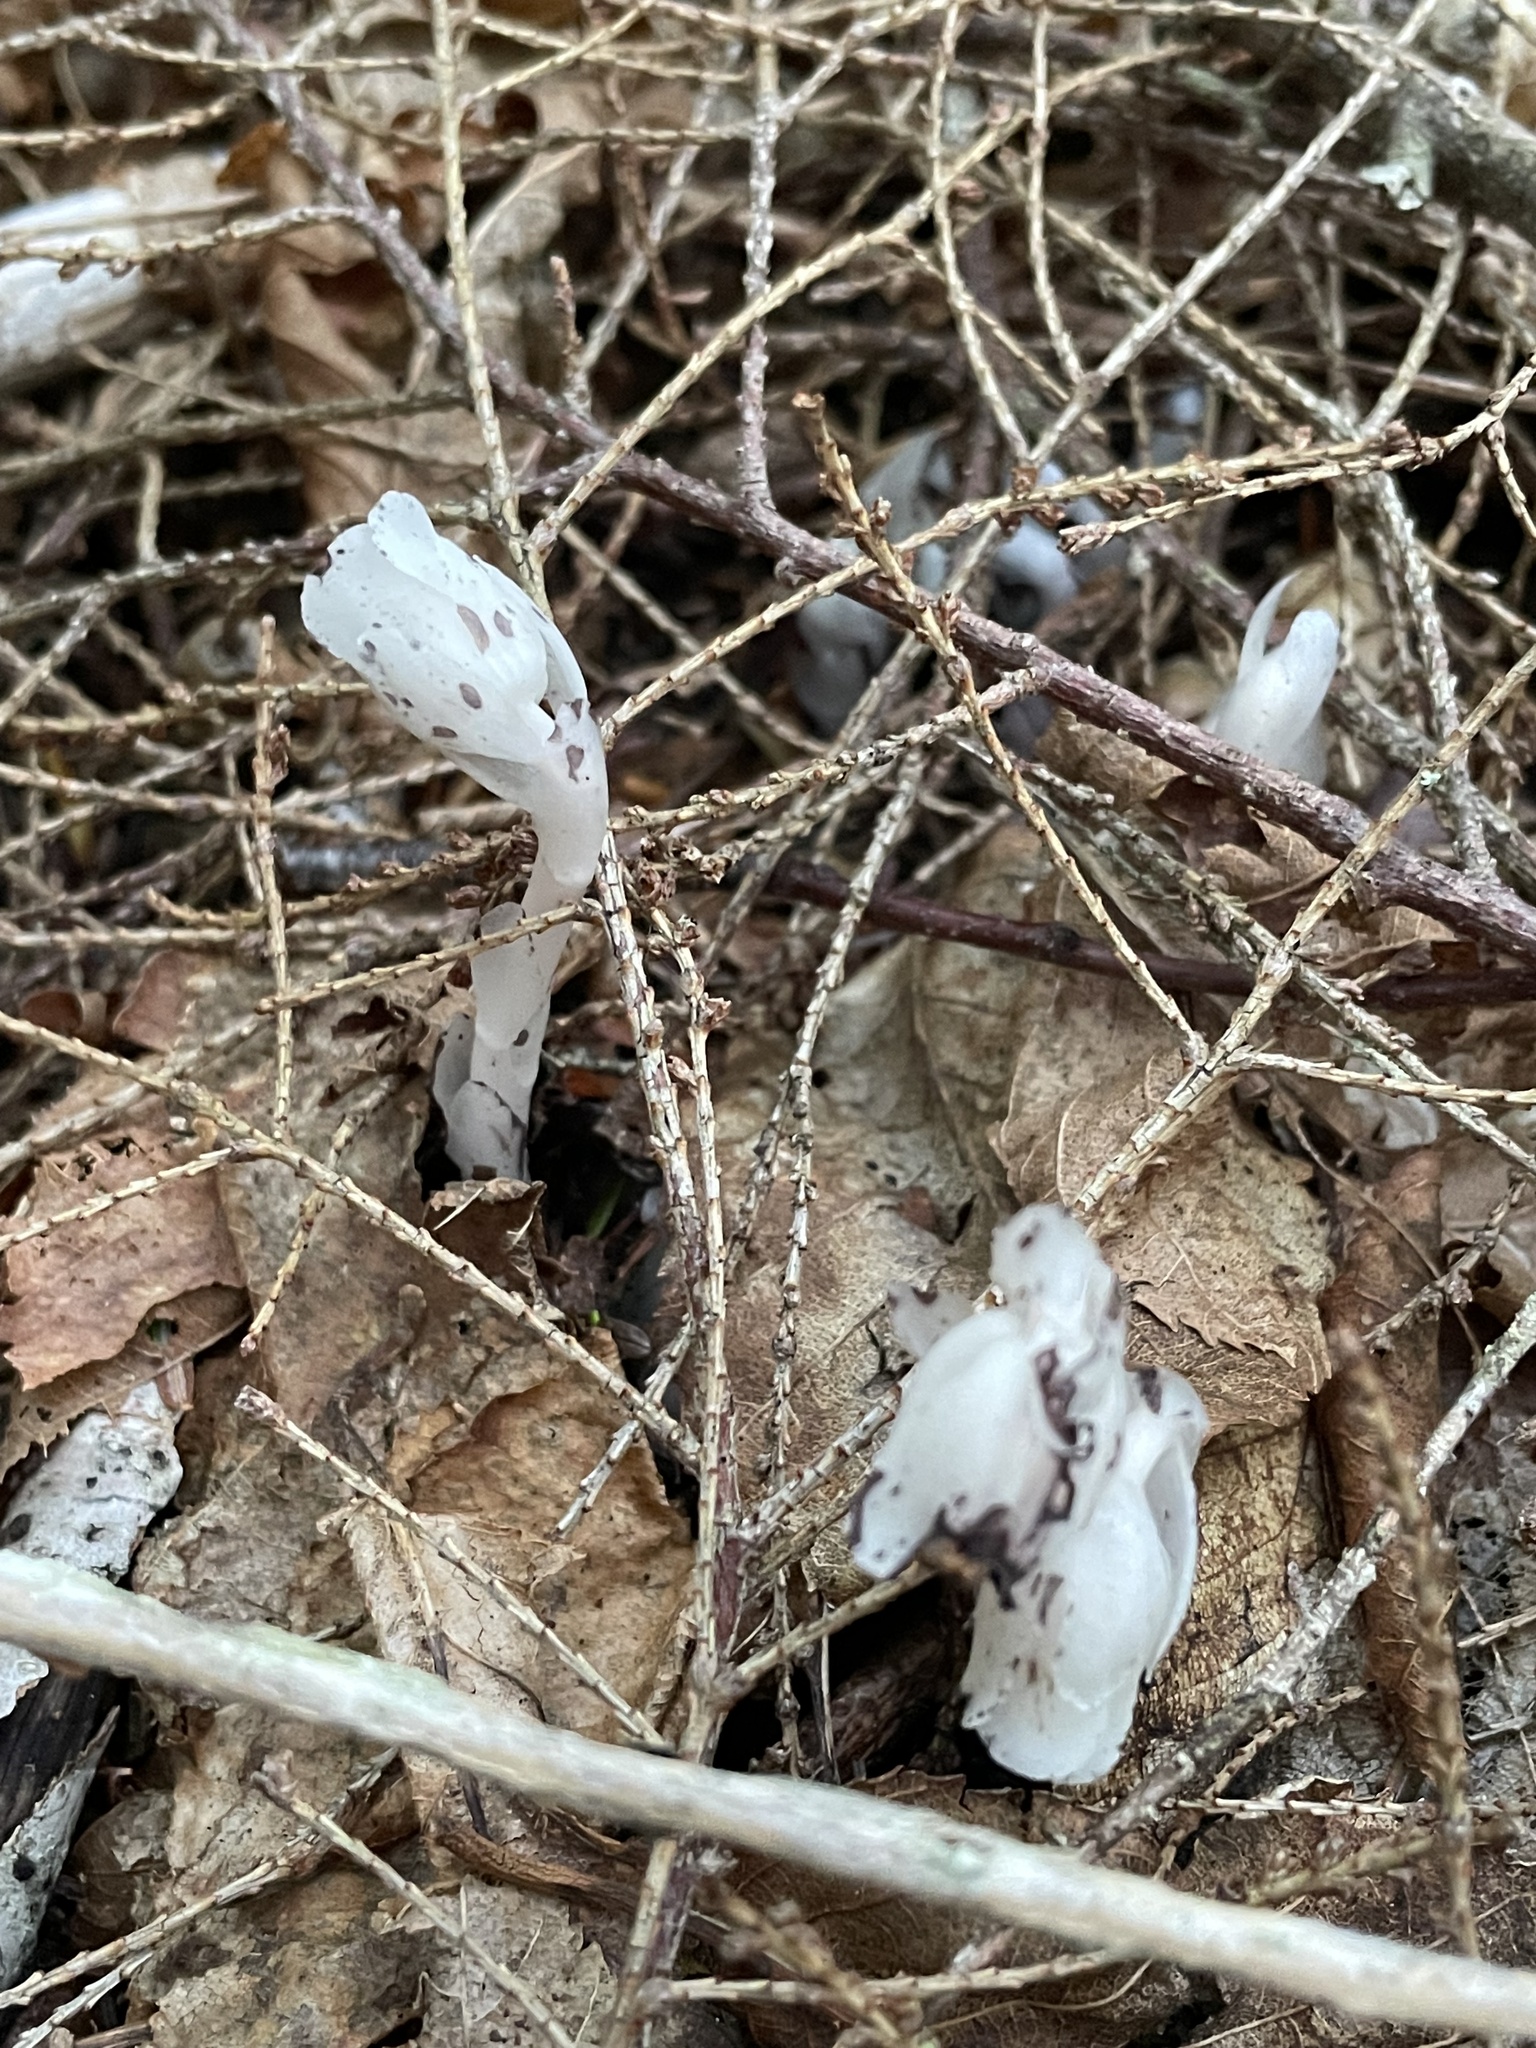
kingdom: Plantae
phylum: Tracheophyta
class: Magnoliopsida
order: Ericales
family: Ericaceae
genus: Monotropa
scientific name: Monotropa uniflora
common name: Convulsion root
